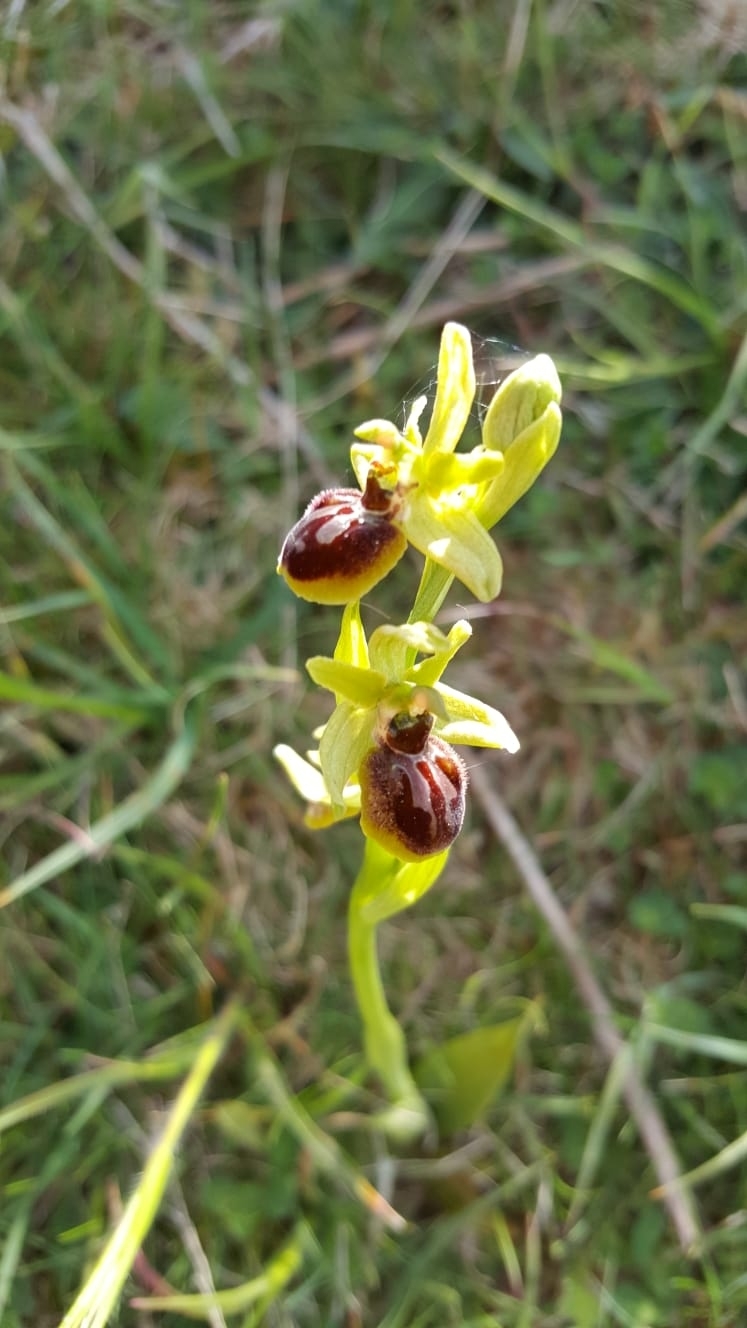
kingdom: Plantae
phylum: Tracheophyta
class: Liliopsida
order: Asparagales
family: Orchidaceae
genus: Ophrys
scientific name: Ophrys sphegodes
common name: Early spider-orchid
